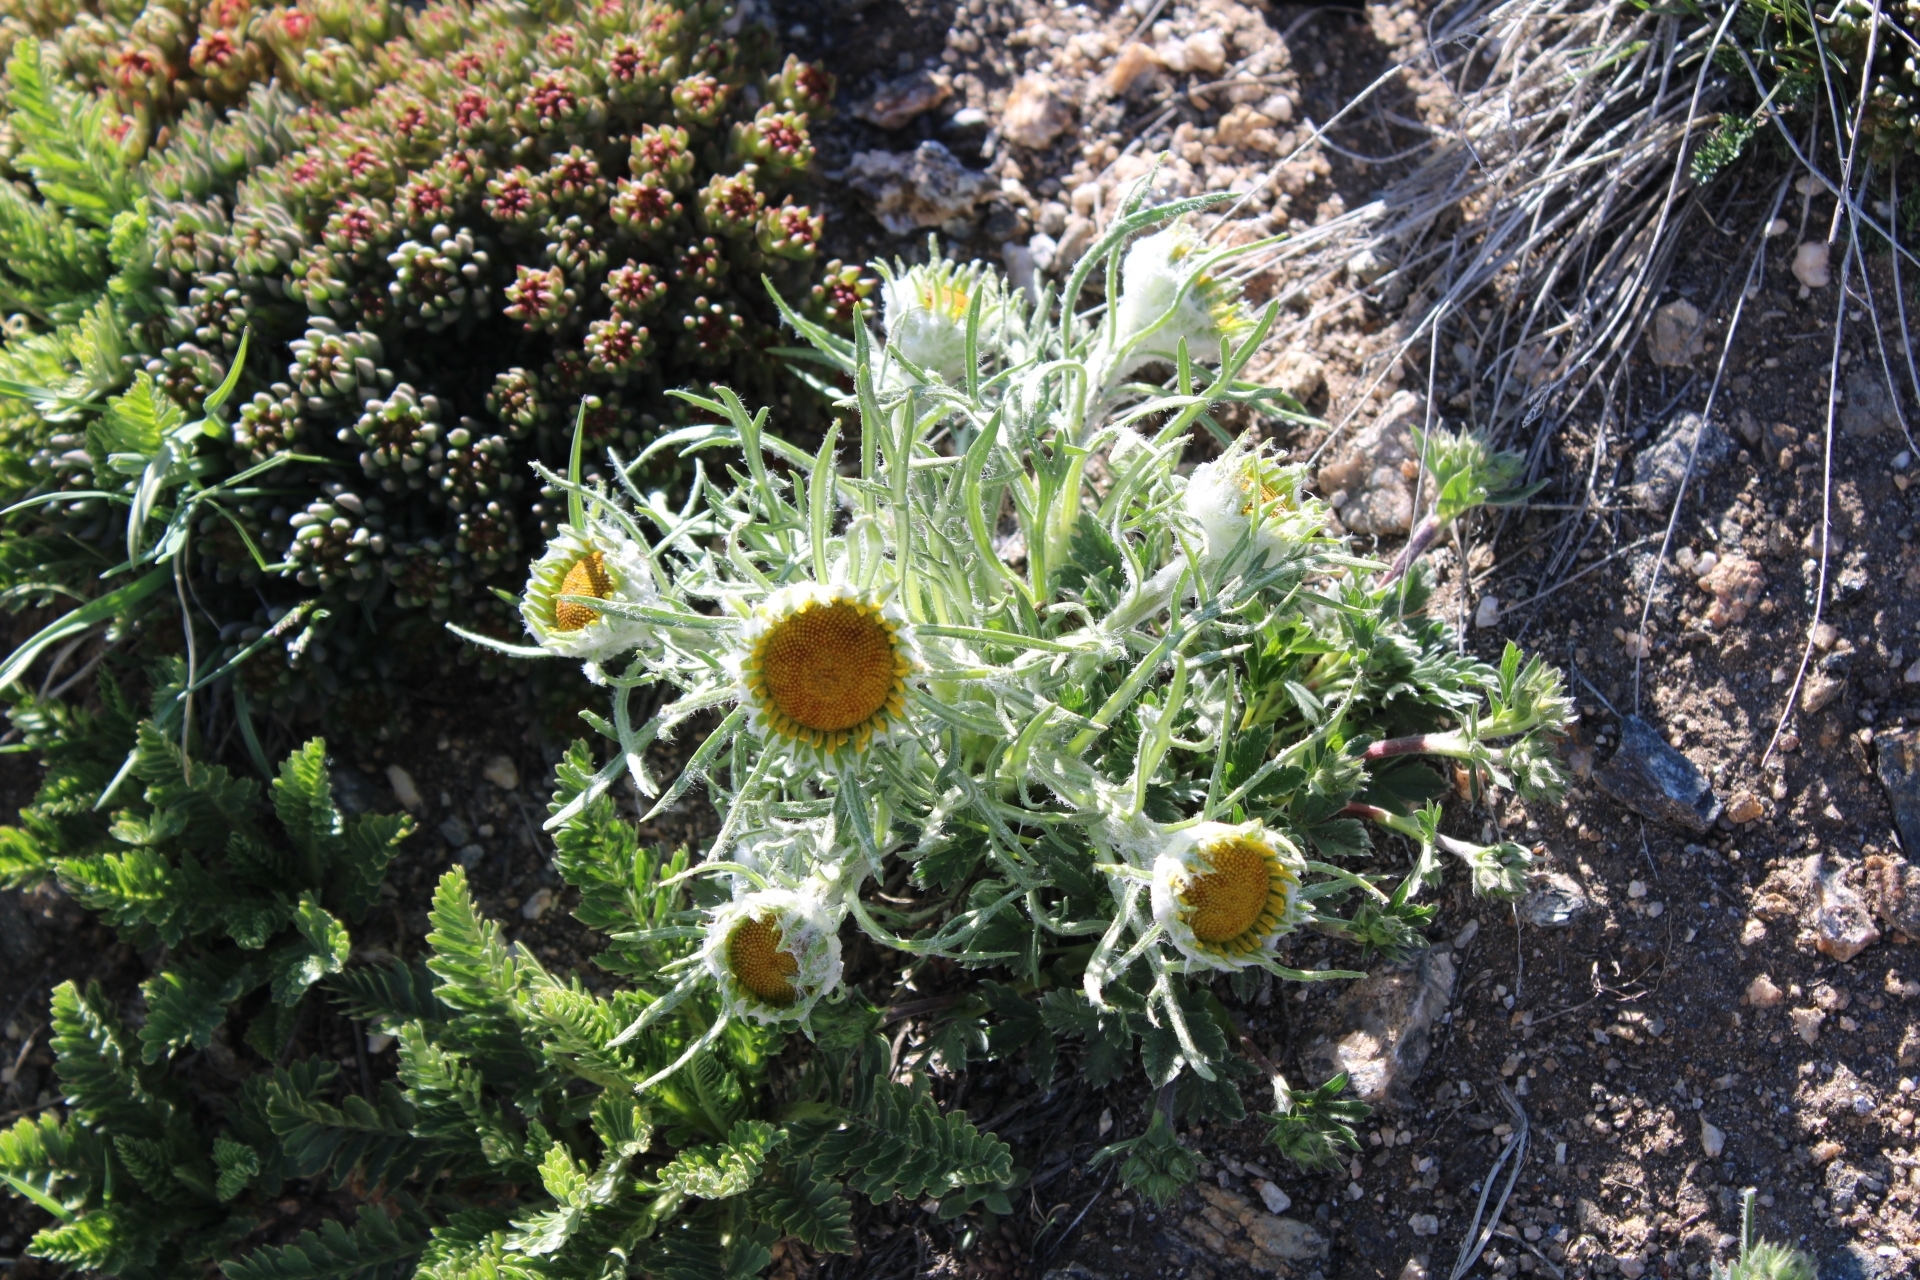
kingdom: Plantae
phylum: Tracheophyta
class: Magnoliopsida
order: Asterales
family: Asteraceae
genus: Hymenoxys
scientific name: Hymenoxys grandiflora
